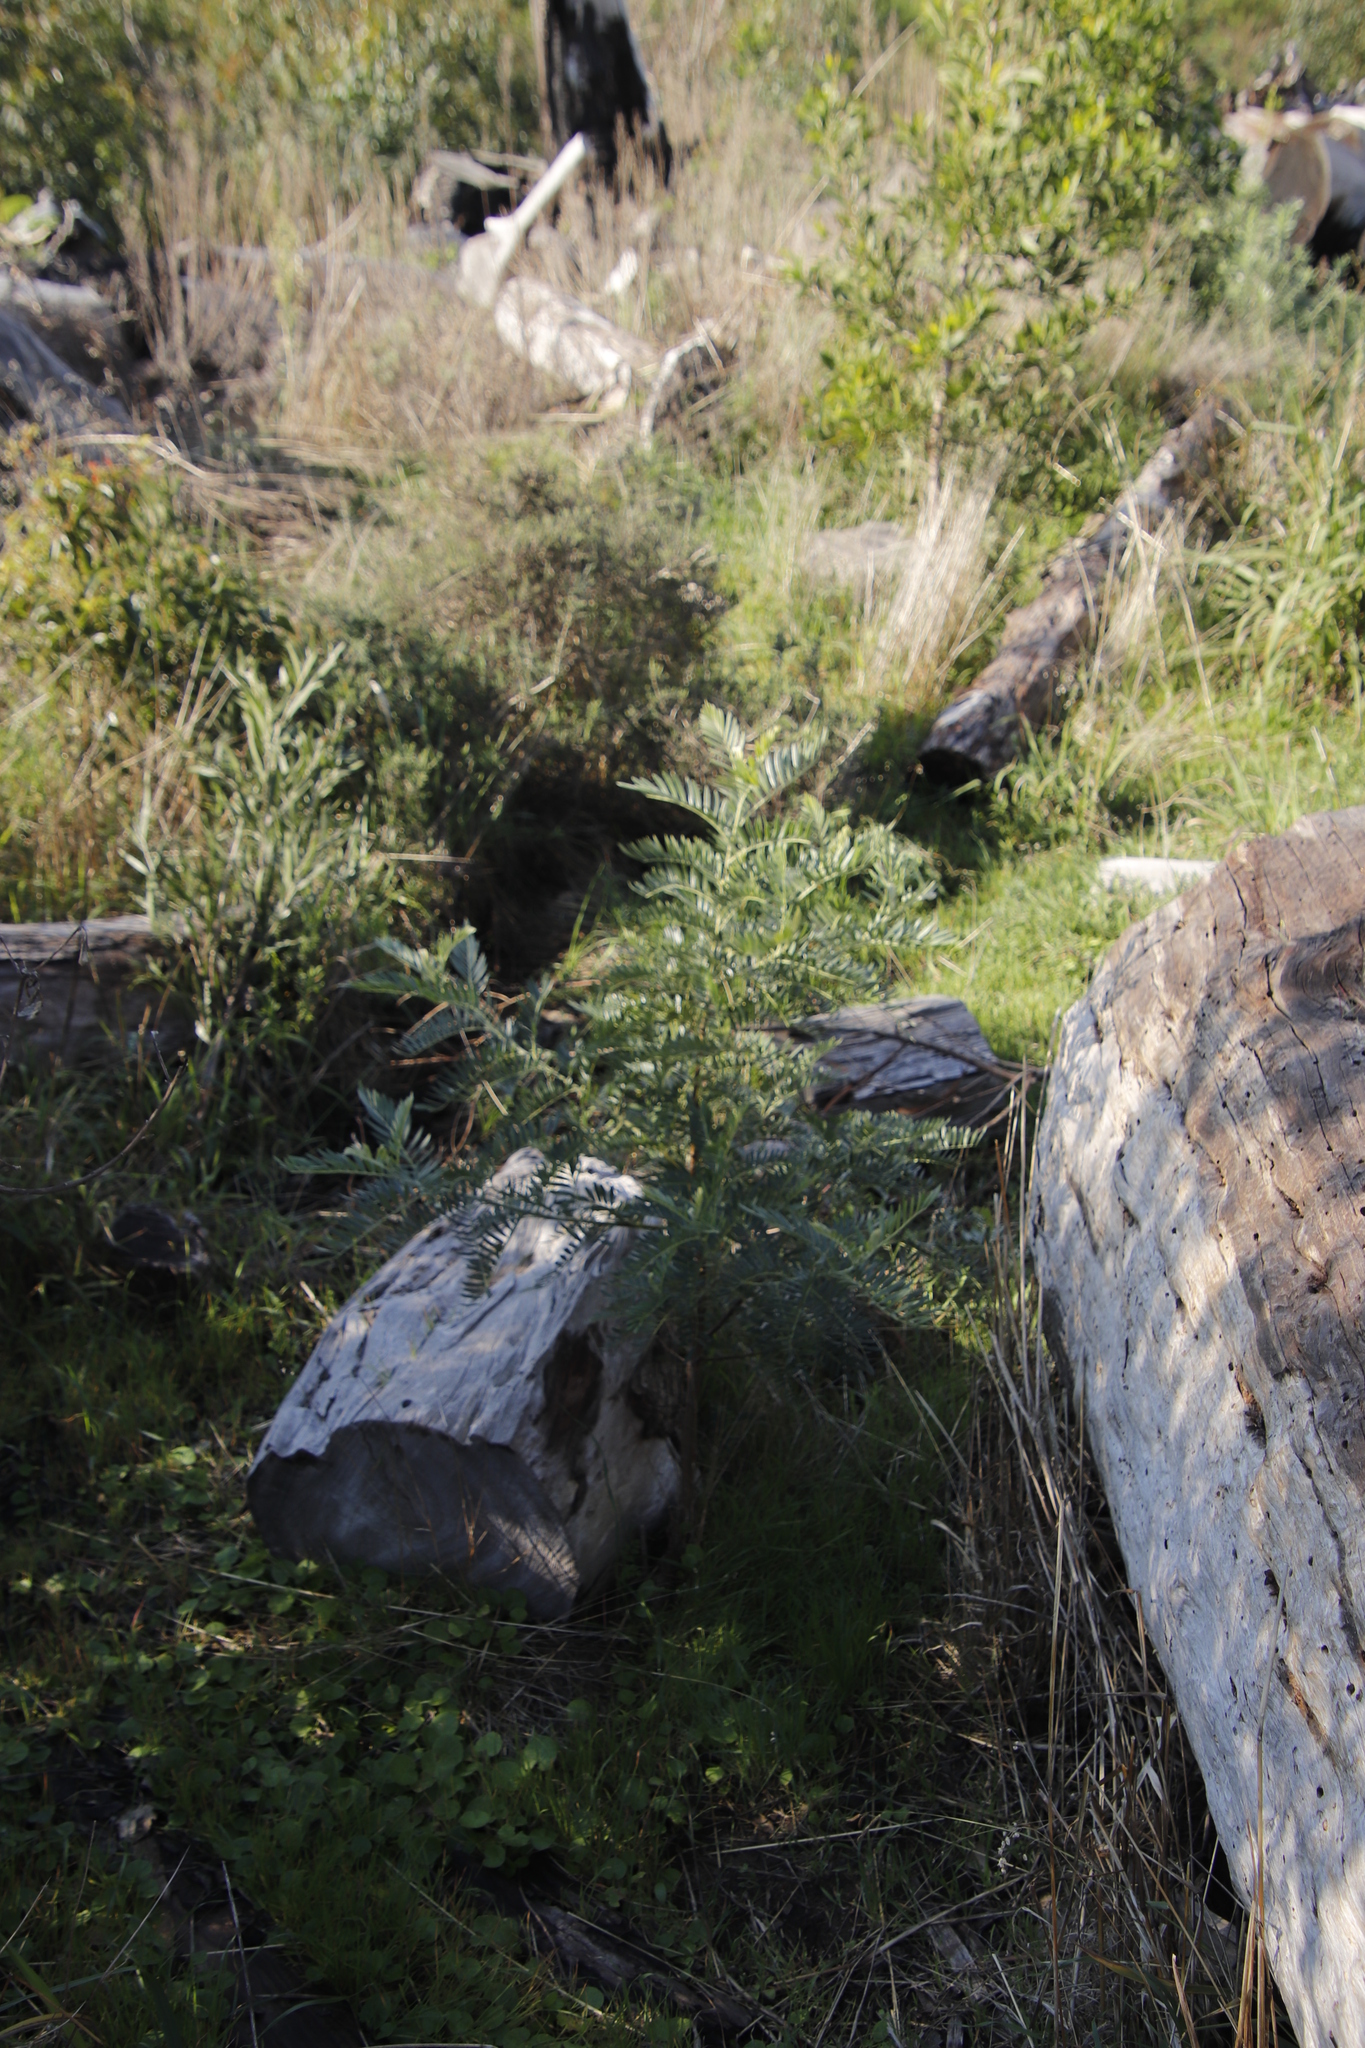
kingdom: Plantae
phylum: Tracheophyta
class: Magnoliopsida
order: Fabales
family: Fabaceae
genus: Virgilia
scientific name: Virgilia oroboides
